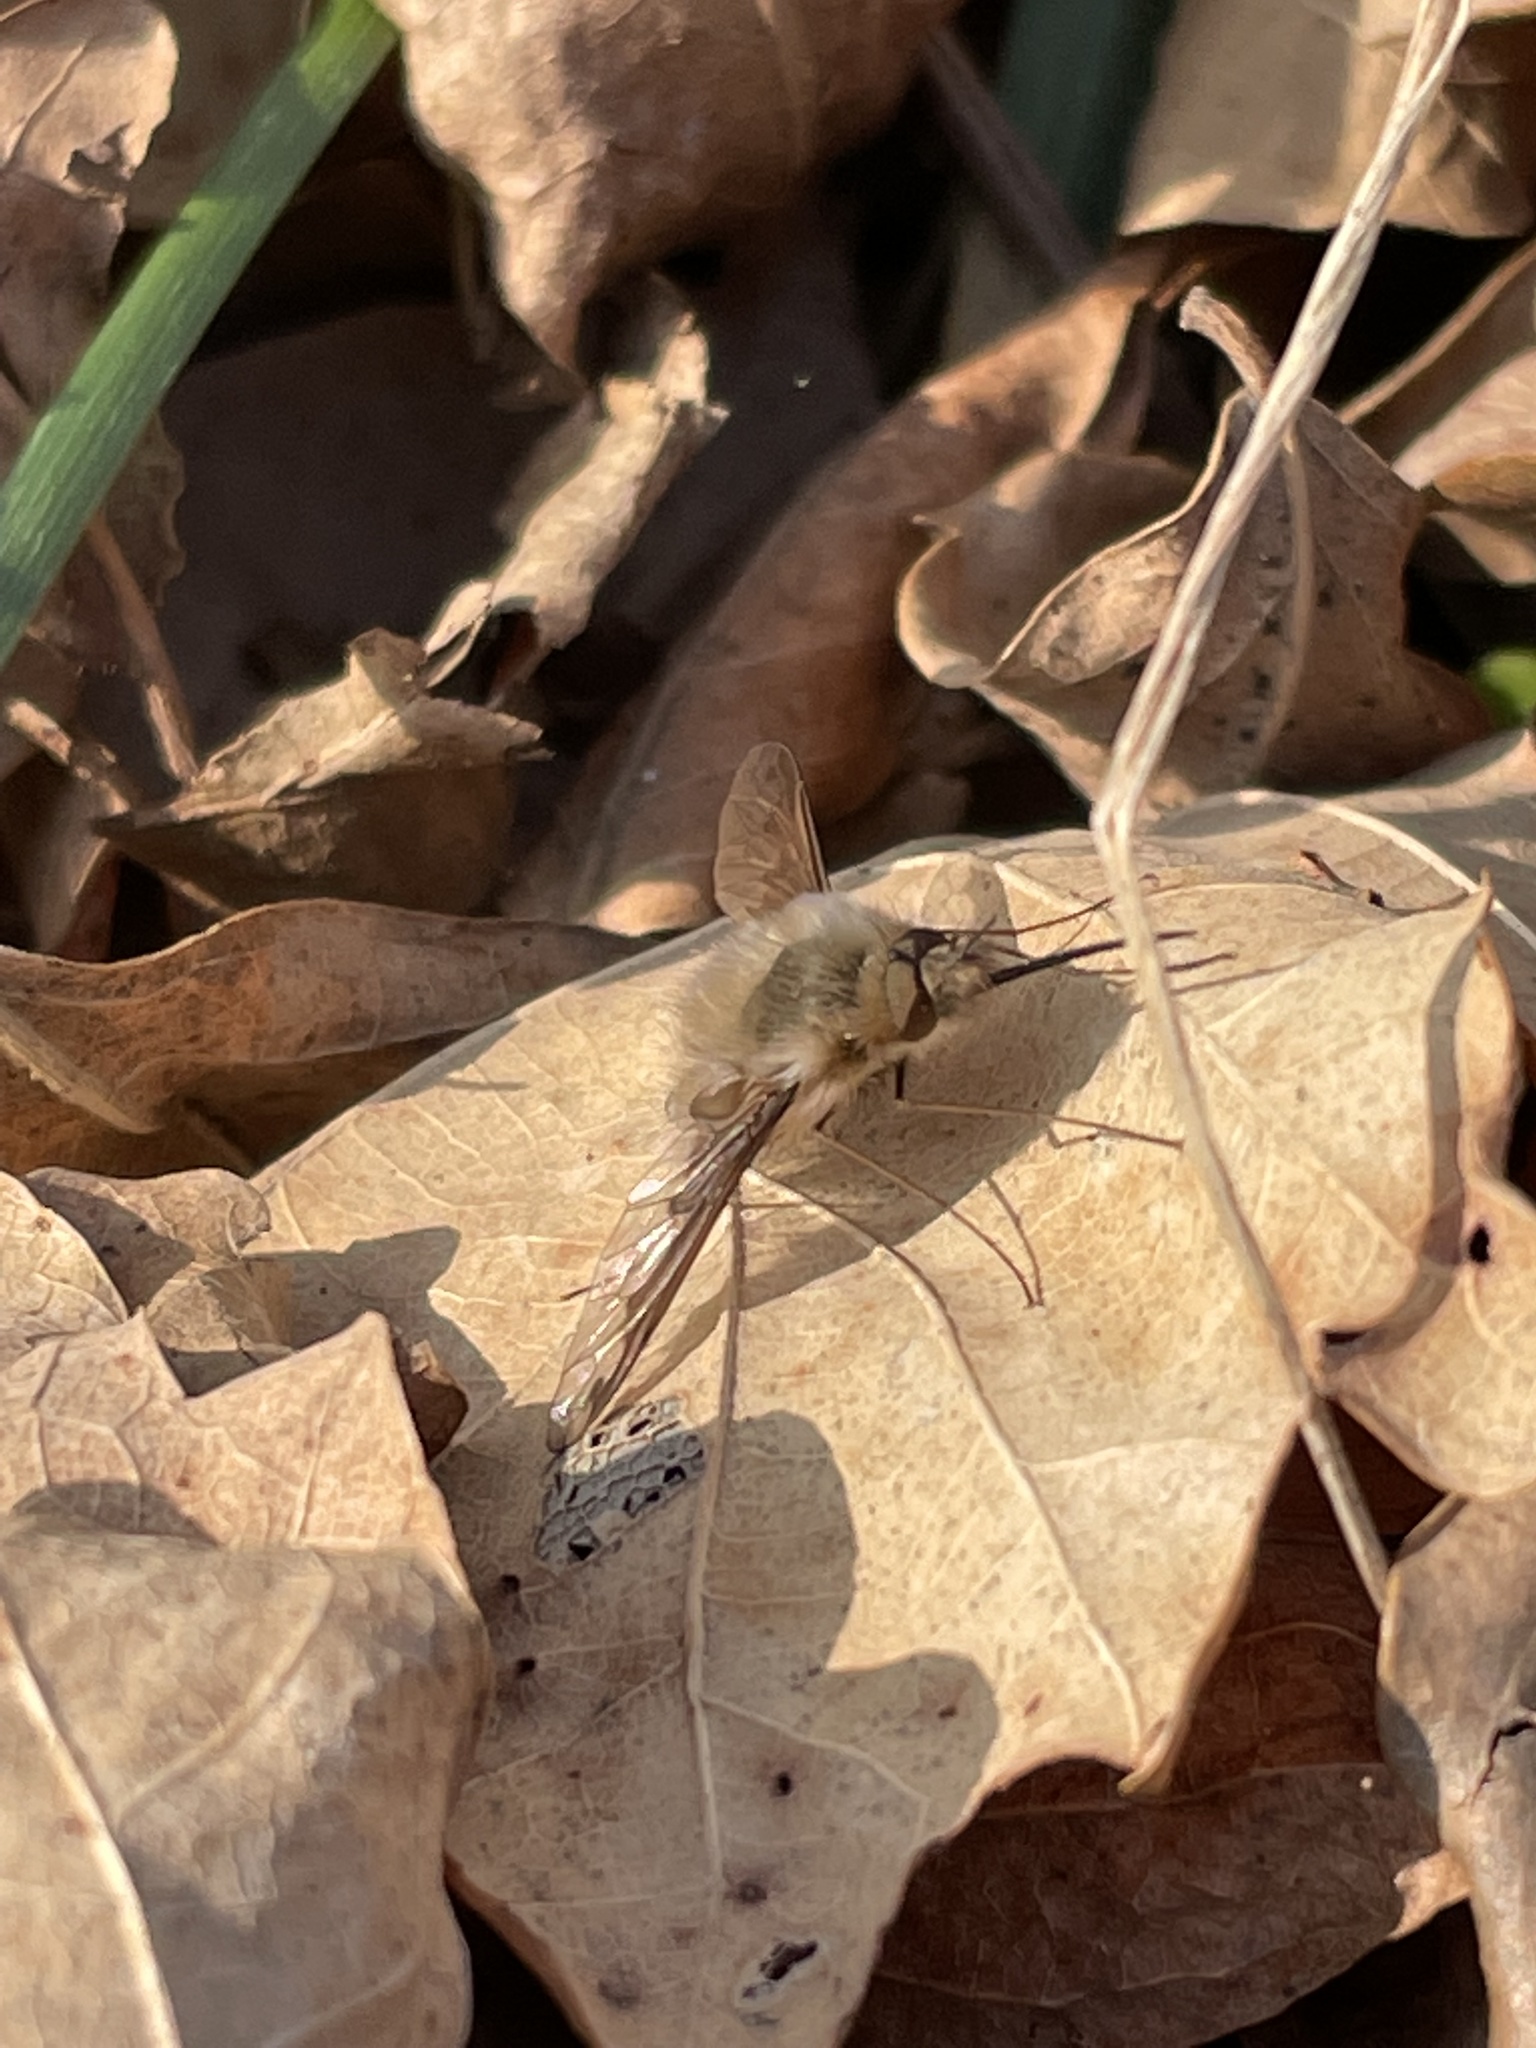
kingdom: Animalia
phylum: Arthropoda
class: Insecta
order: Diptera
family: Bombyliidae
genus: Bombylius
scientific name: Bombylius major
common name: Bee fly
